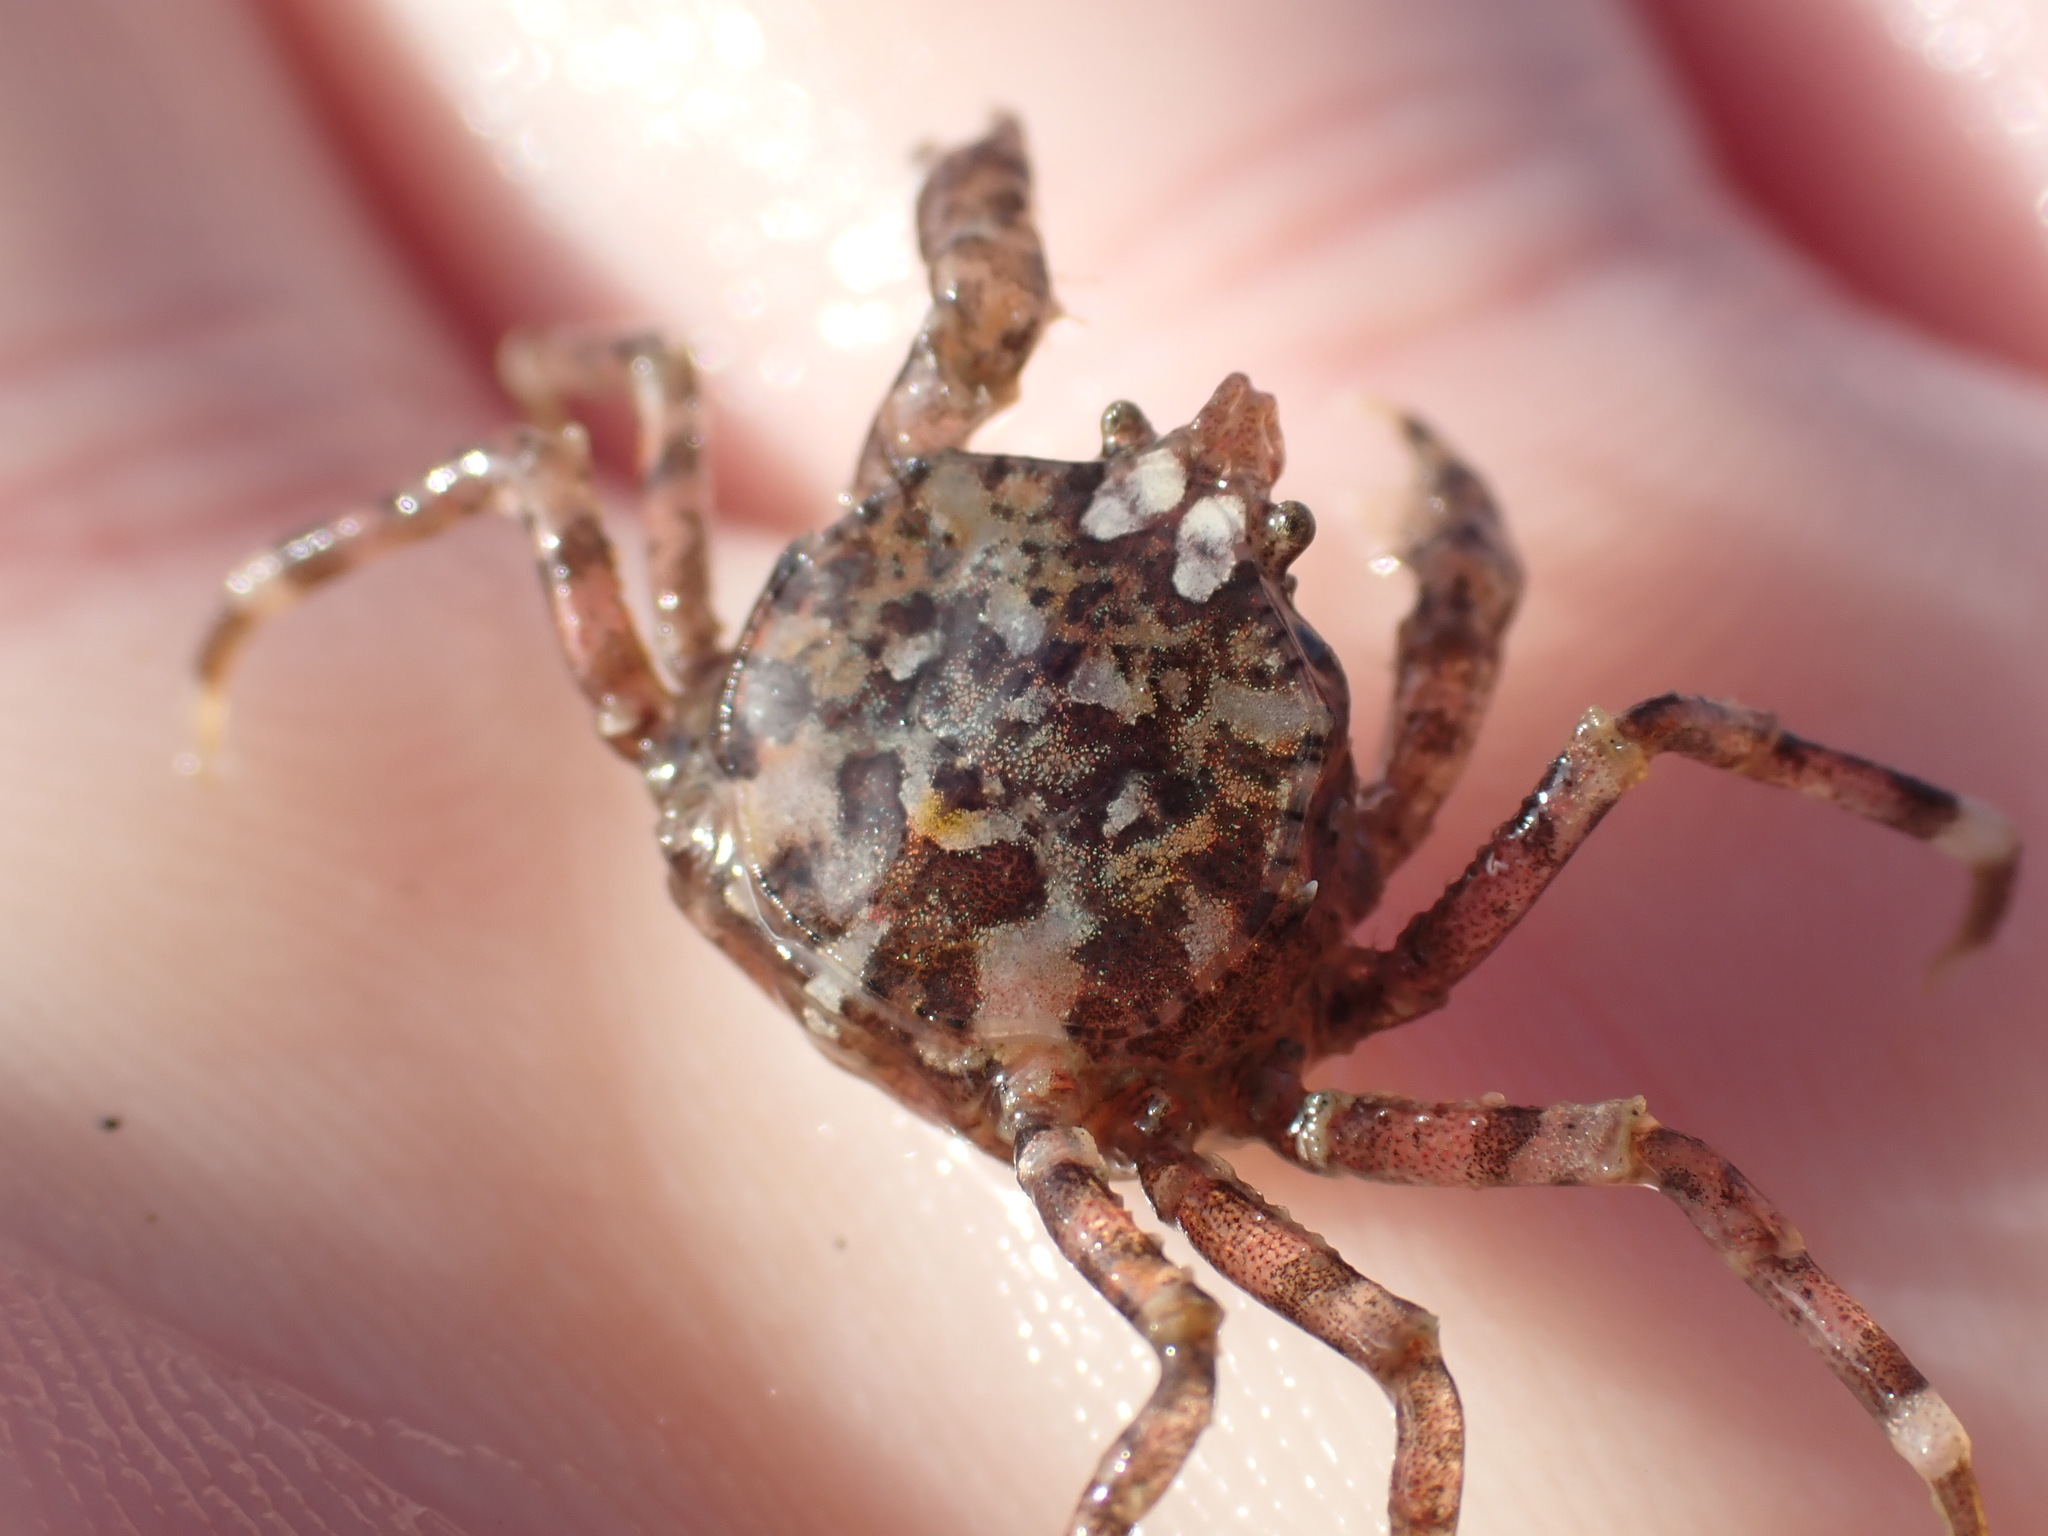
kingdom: Animalia
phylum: Arthropoda
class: Malacostraca
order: Decapoda
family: Hymenosomatidae
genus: Halicarcinus
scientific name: Halicarcinus cookii
